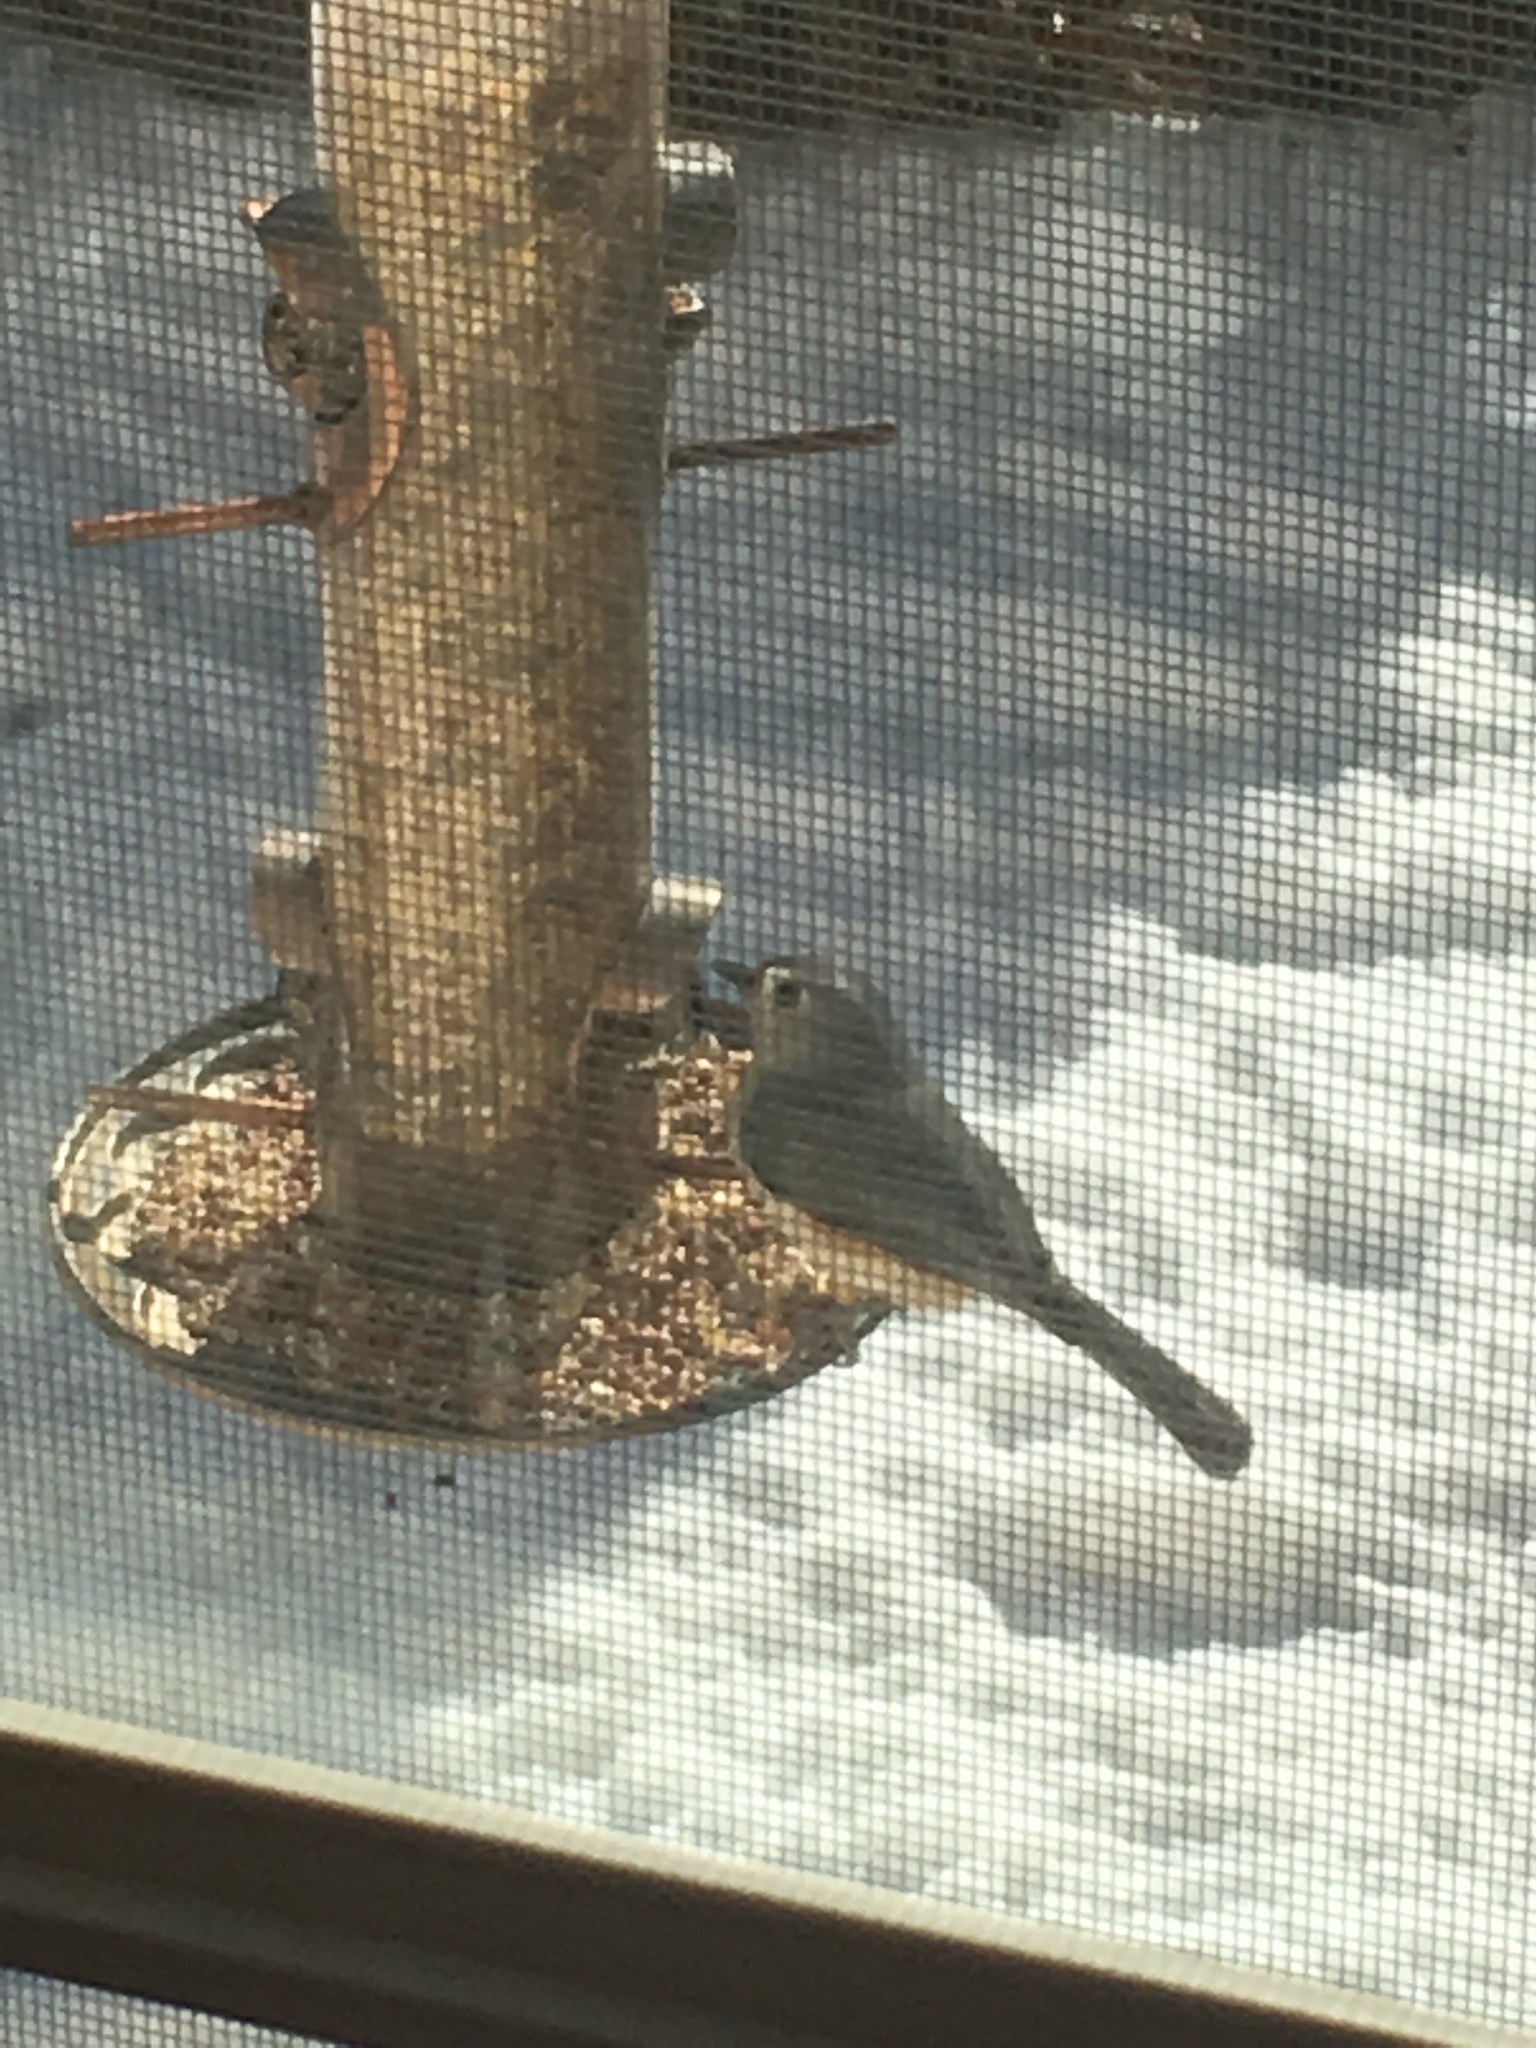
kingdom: Animalia
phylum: Chordata
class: Aves
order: Passeriformes
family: Paridae
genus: Baeolophus
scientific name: Baeolophus bicolor
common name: Tufted titmouse
